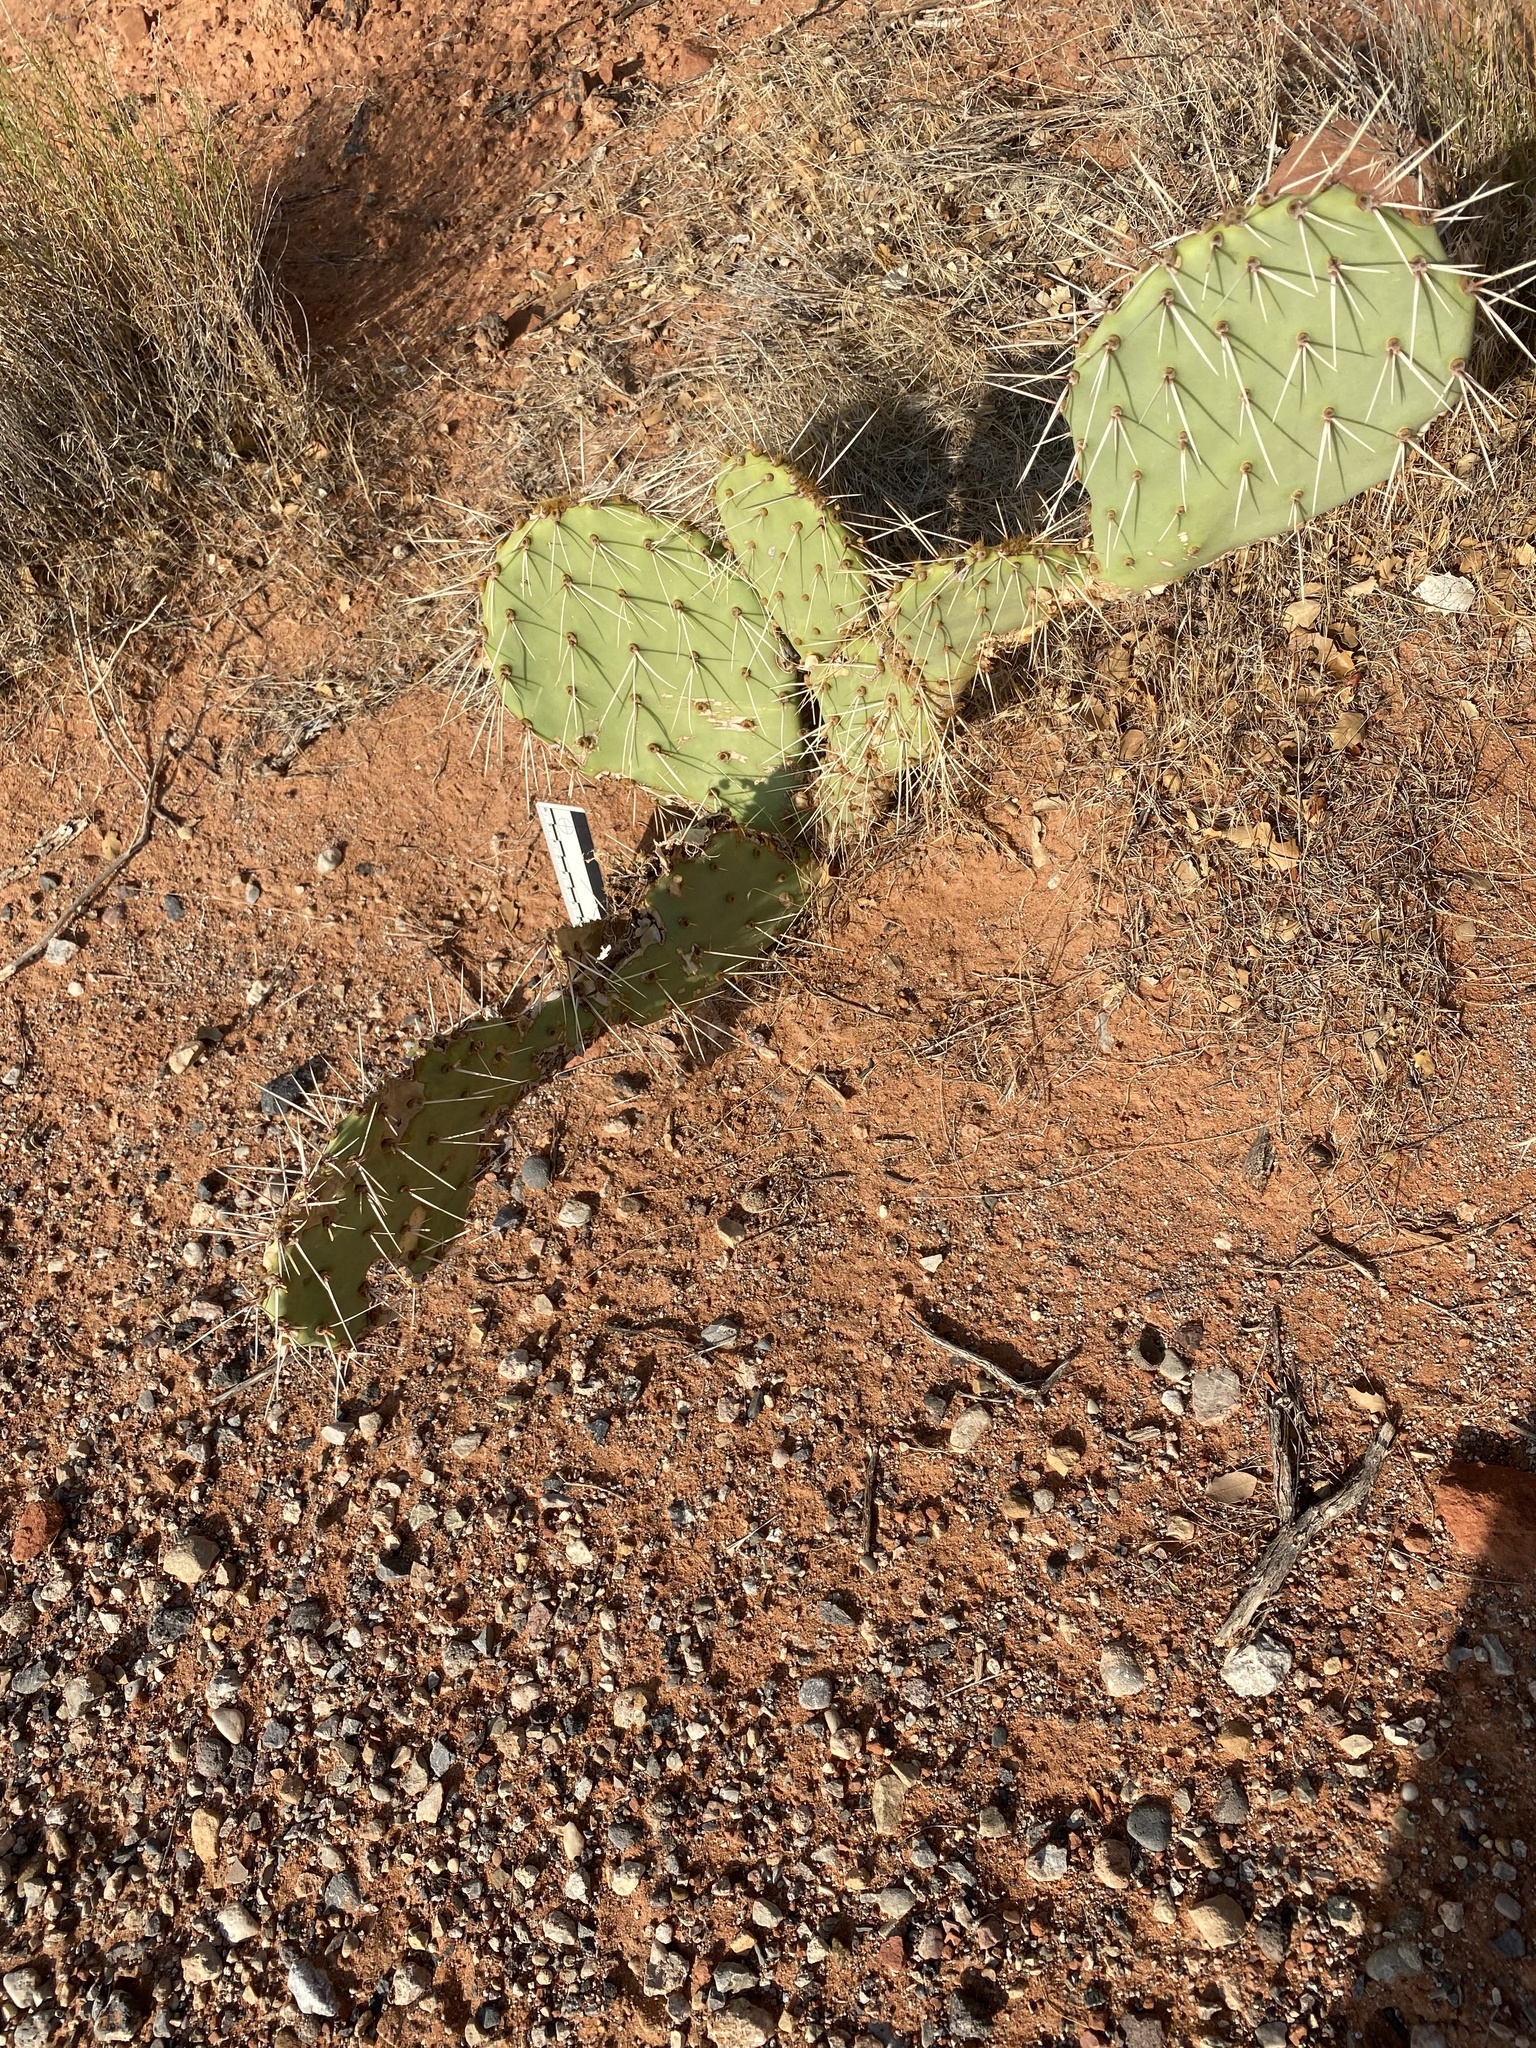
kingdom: Plantae
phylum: Tracheophyta
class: Magnoliopsida
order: Caryophyllales
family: Cactaceae
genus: Opuntia
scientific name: Opuntia phaeacantha
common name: New mexico prickly-pear
